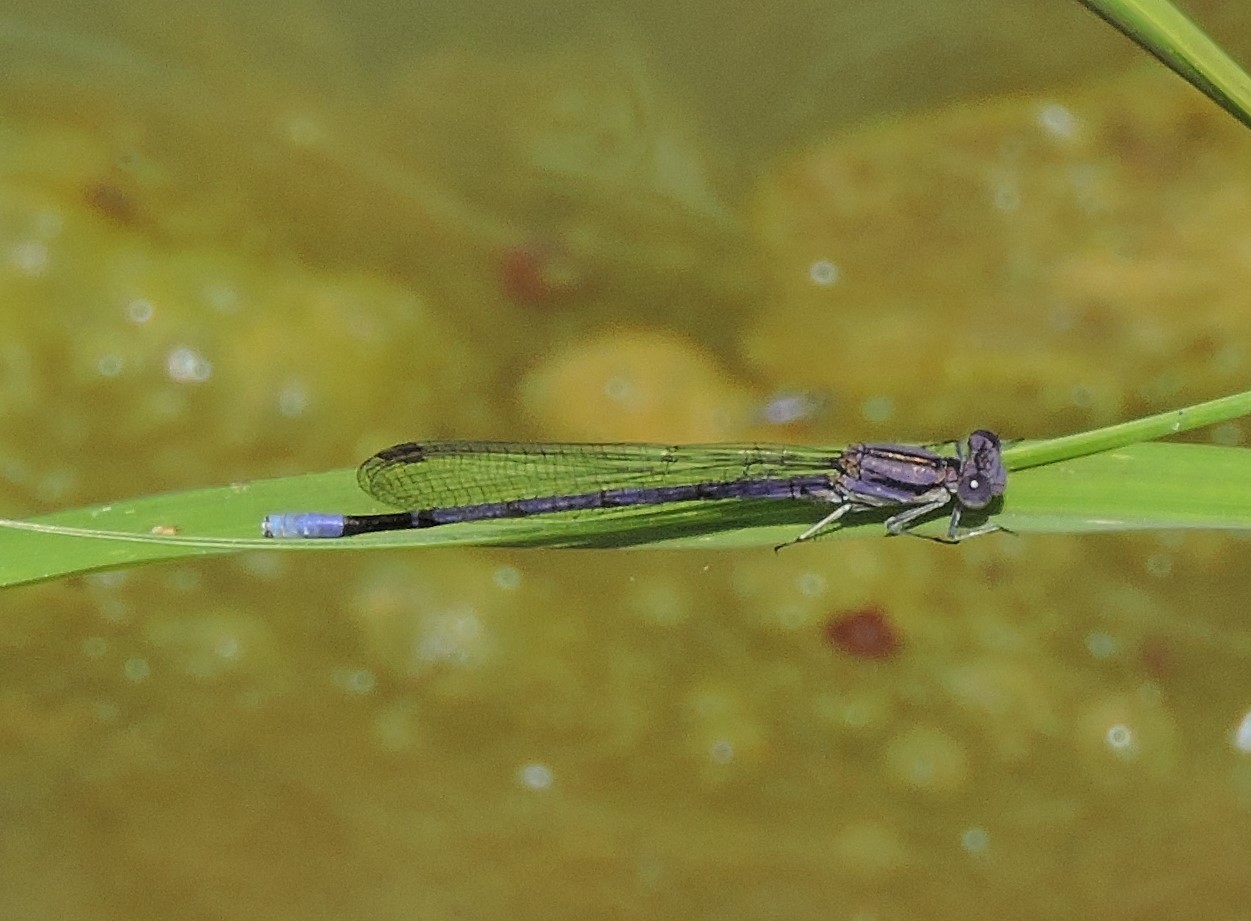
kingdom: Animalia
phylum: Arthropoda
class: Insecta
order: Odonata
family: Coenagrionidae
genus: Argia
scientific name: Argia fumipennis
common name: Variable dancer
